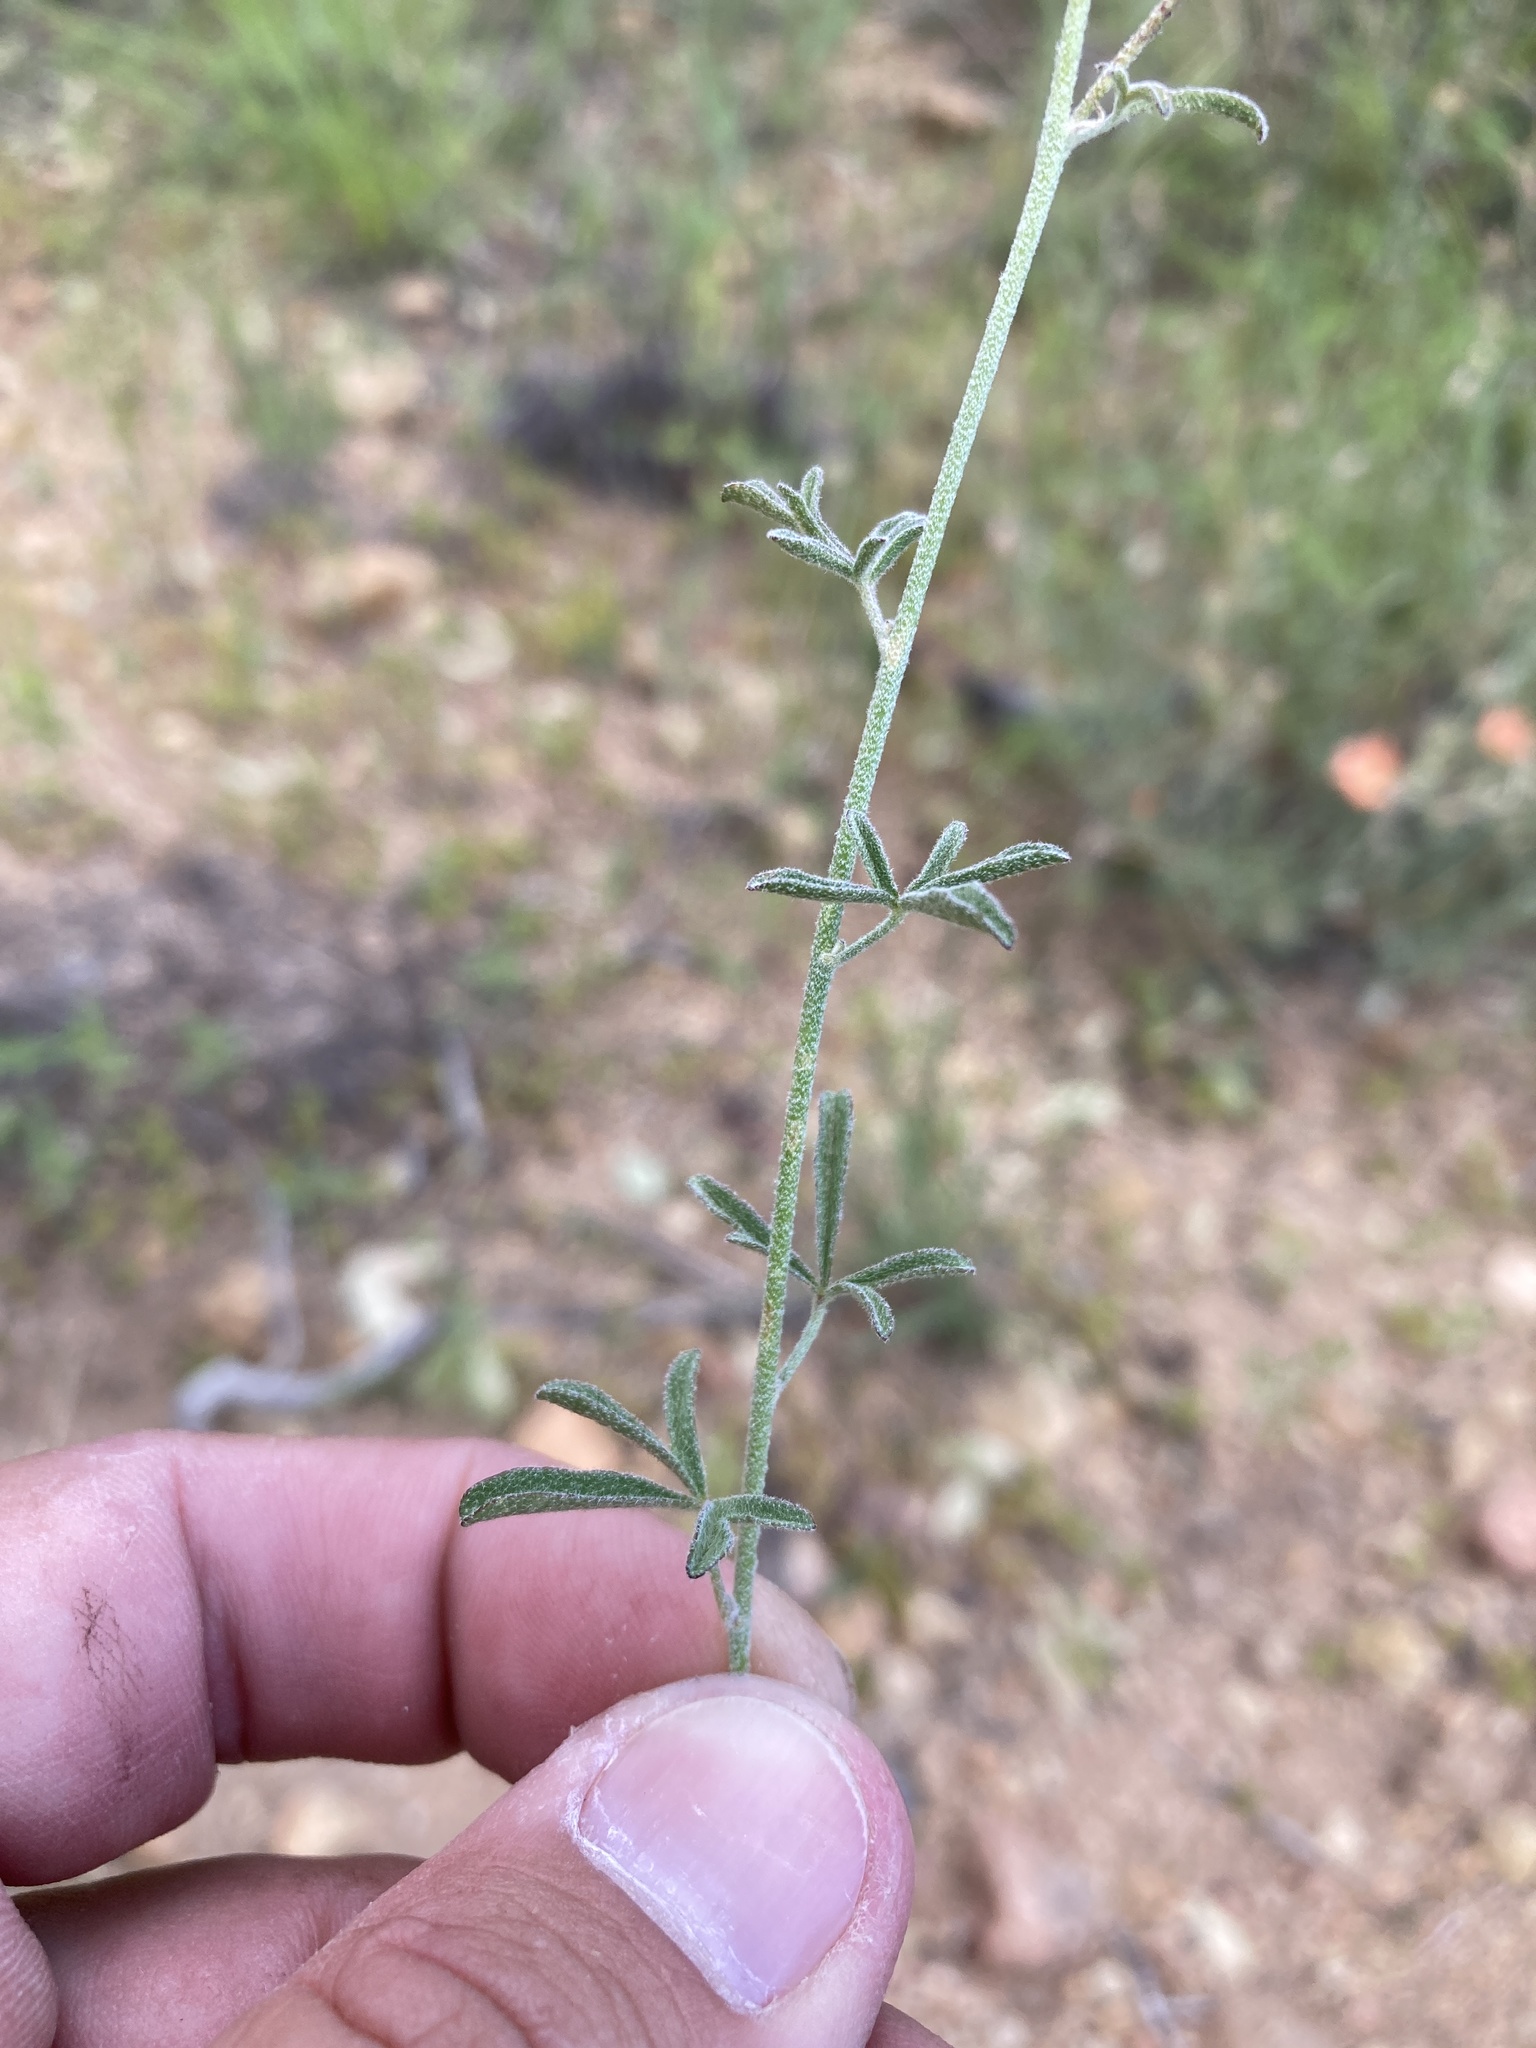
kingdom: Plantae
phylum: Tracheophyta
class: Magnoliopsida
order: Malvales
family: Malvaceae
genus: Sphaeralcea
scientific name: Sphaeralcea digitata
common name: Juniper-gobe-mallow
